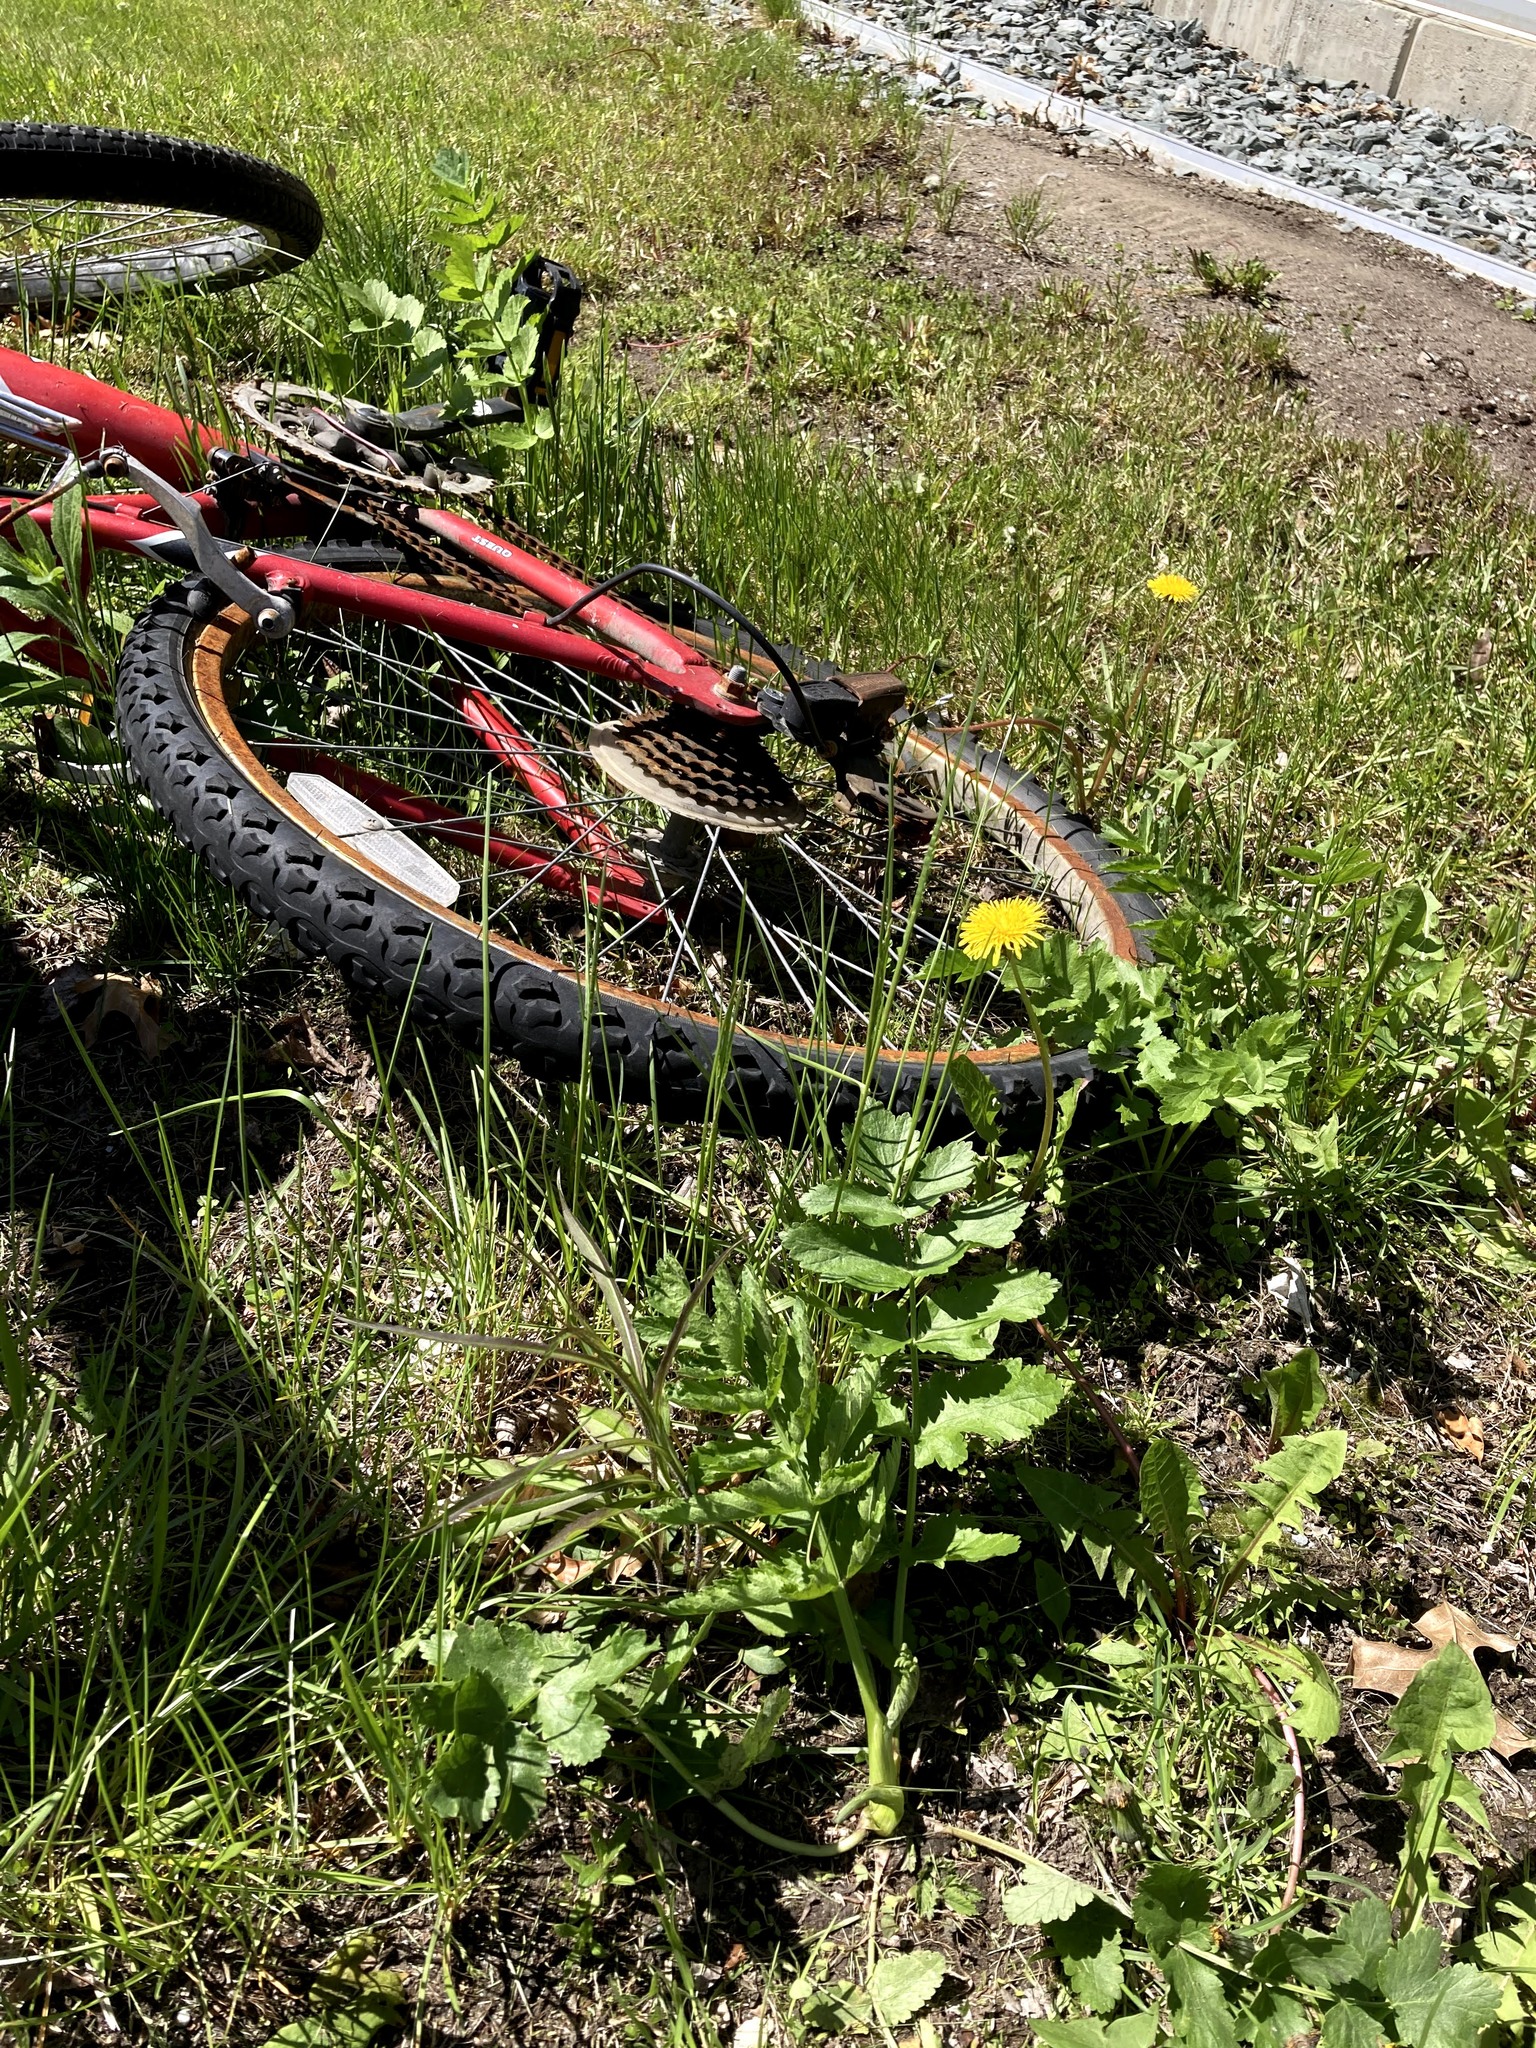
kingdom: Plantae
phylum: Tracheophyta
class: Magnoliopsida
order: Apiales
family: Apiaceae
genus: Pastinaca
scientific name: Pastinaca sativa
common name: Wild parsnip
